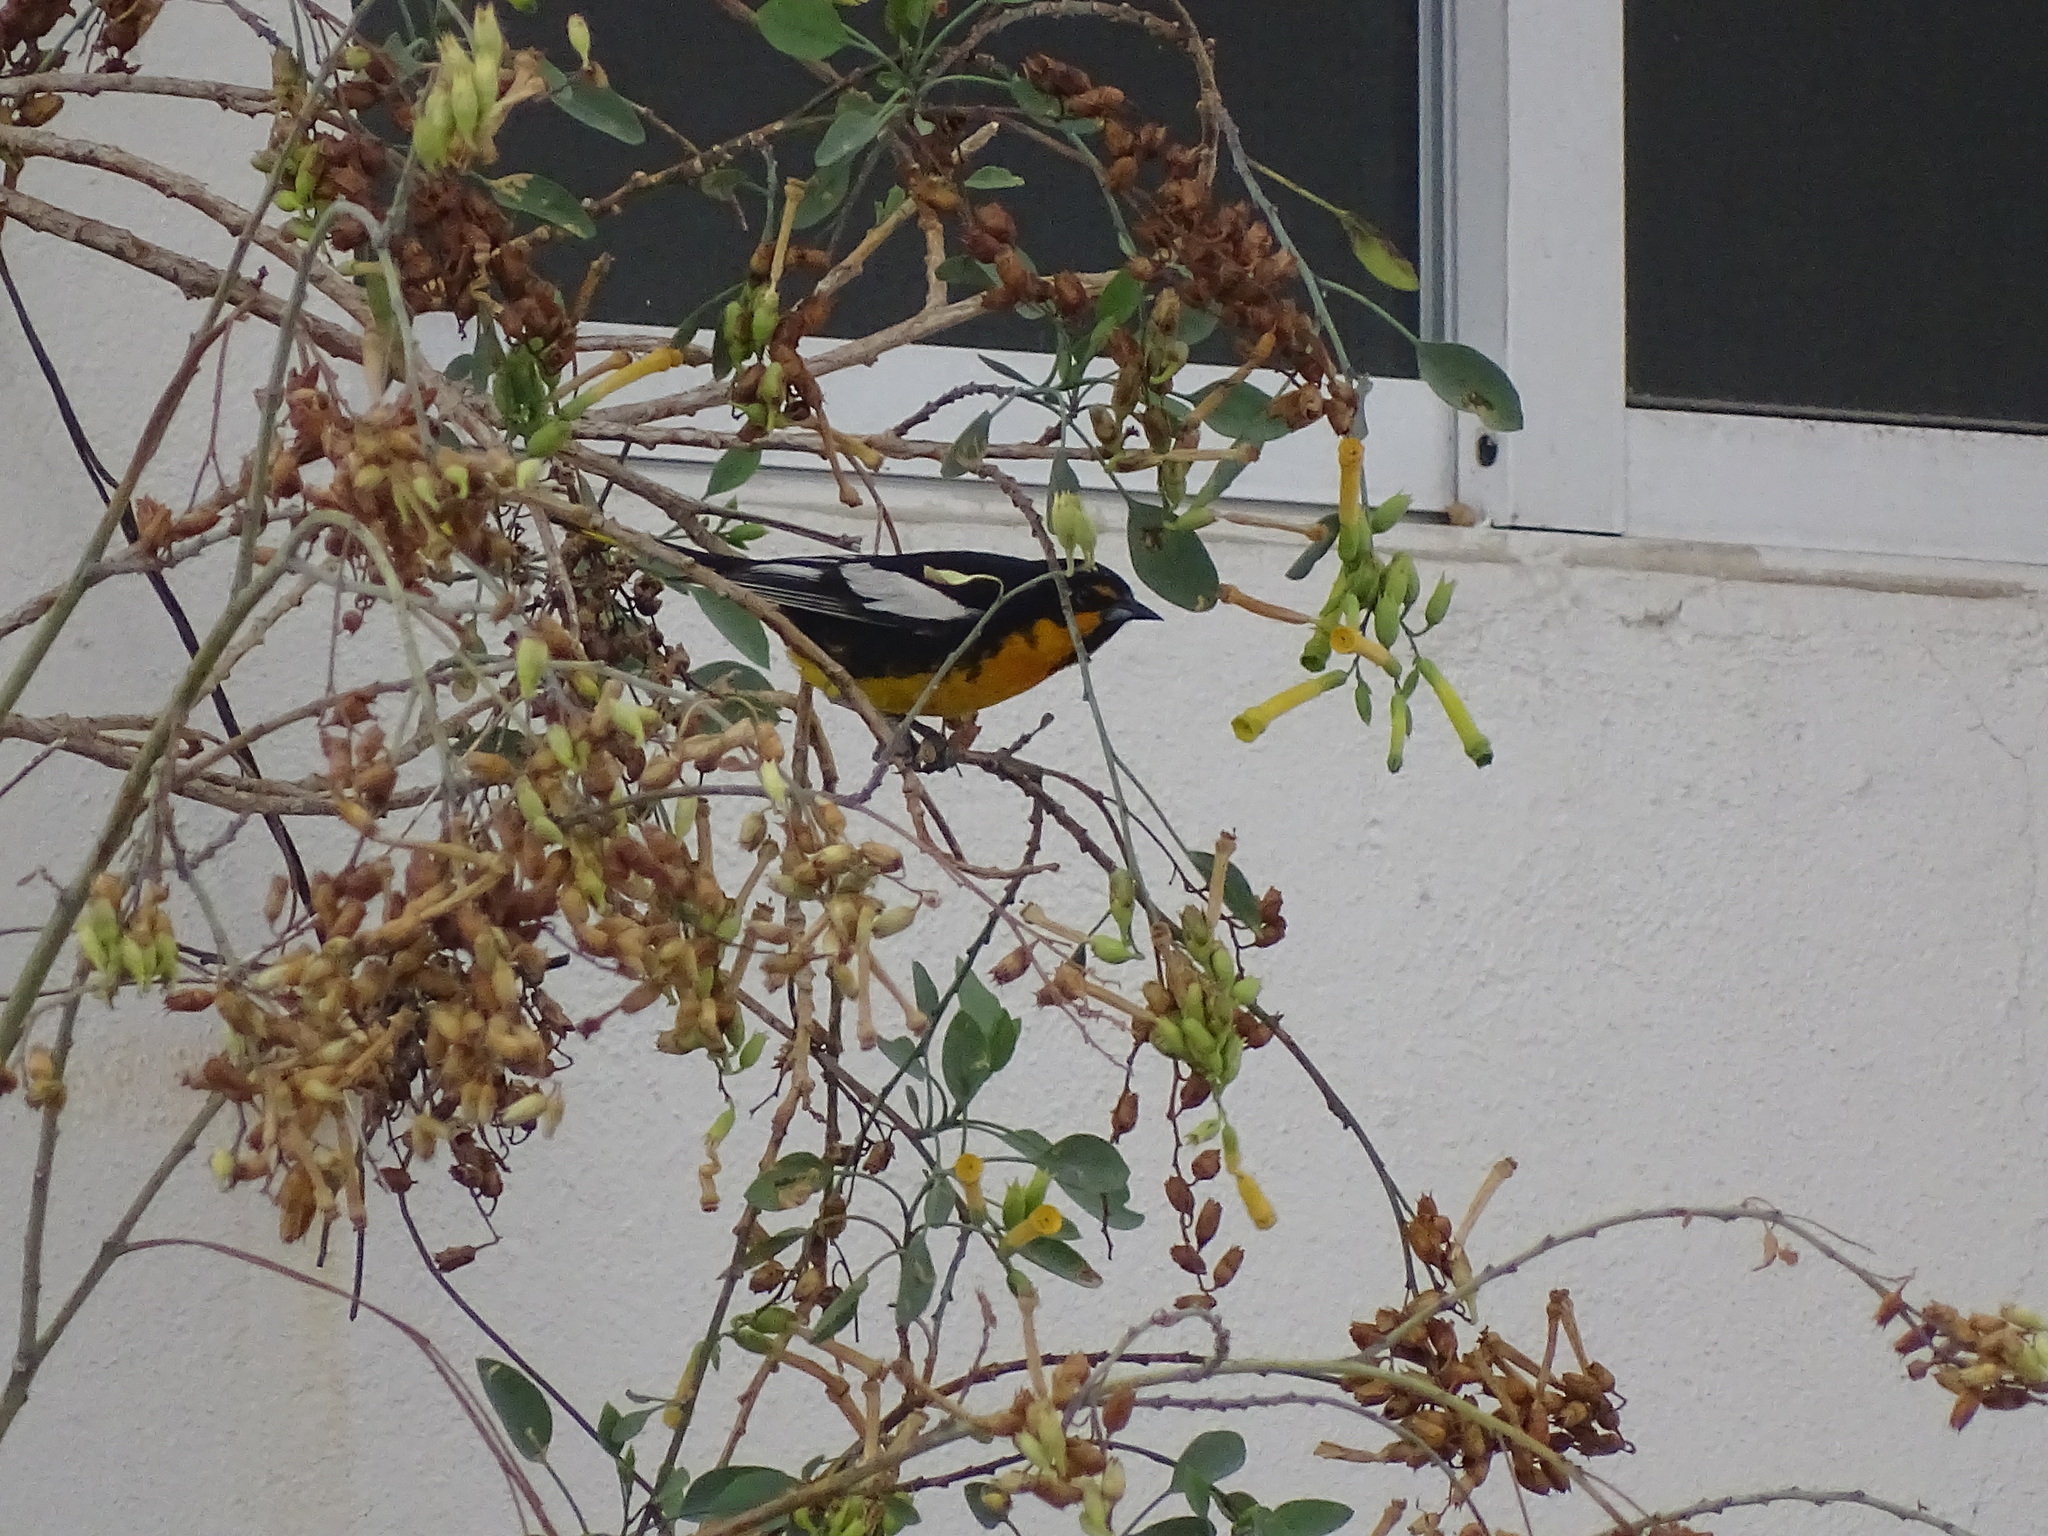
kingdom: Animalia
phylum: Chordata
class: Aves
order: Passeriformes
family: Icteridae
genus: Icterus
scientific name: Icterus abeillei
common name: Black-backed oriole
